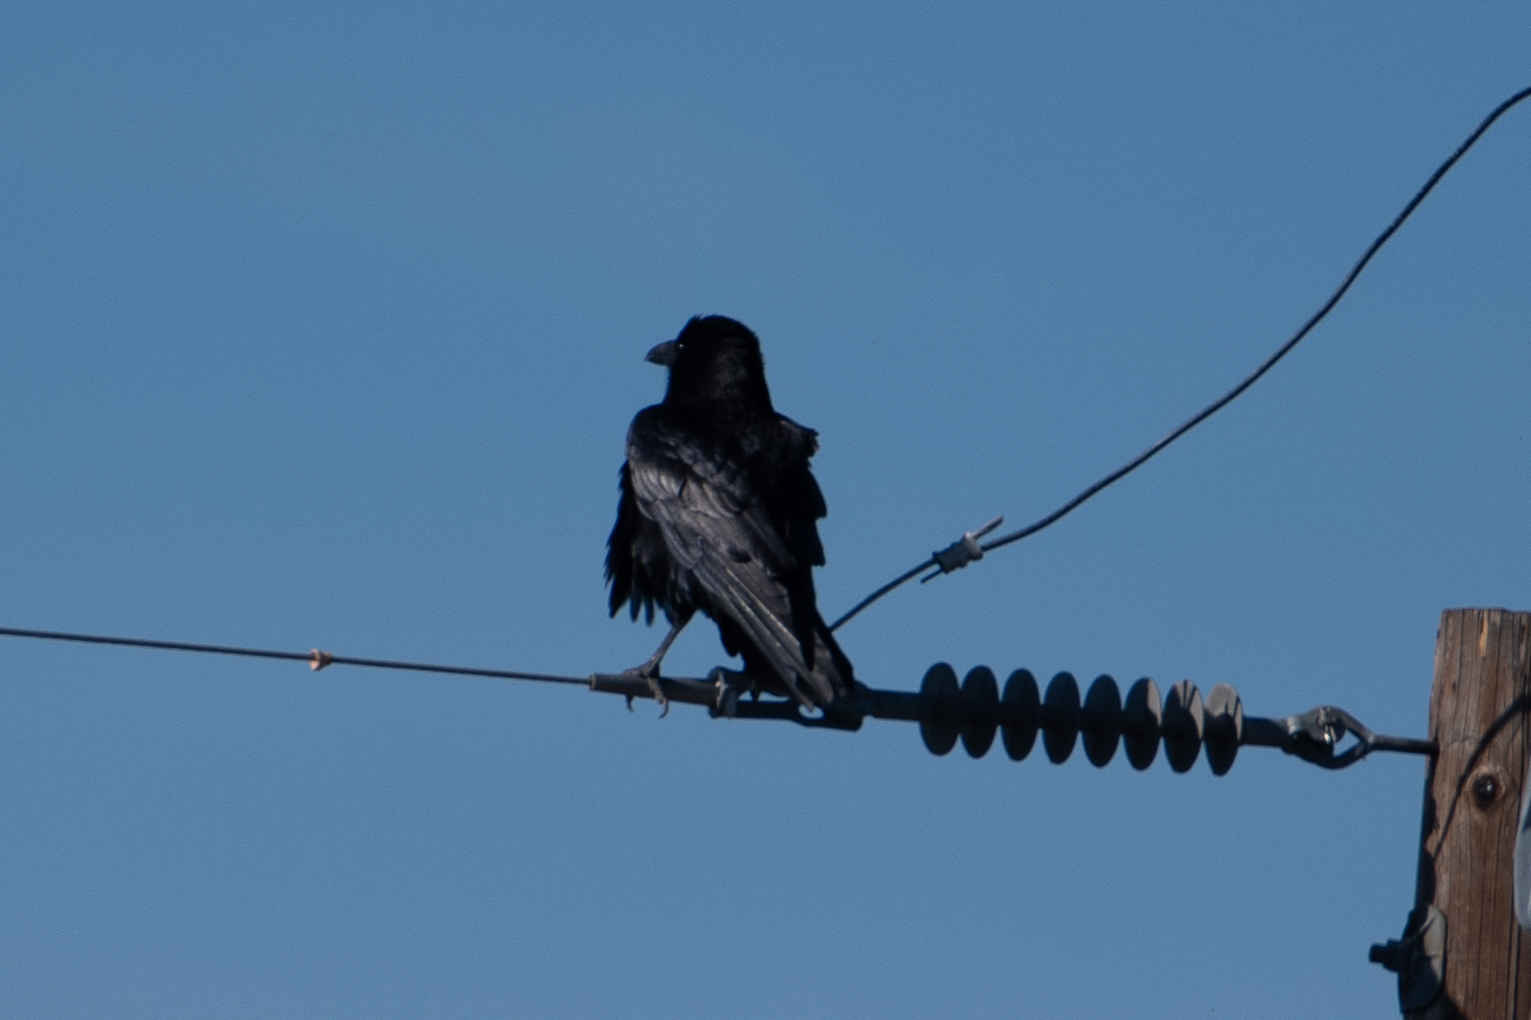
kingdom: Animalia
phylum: Chordata
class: Aves
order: Passeriformes
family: Corvidae
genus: Corvus
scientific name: Corvus brachyrhynchos
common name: American crow
